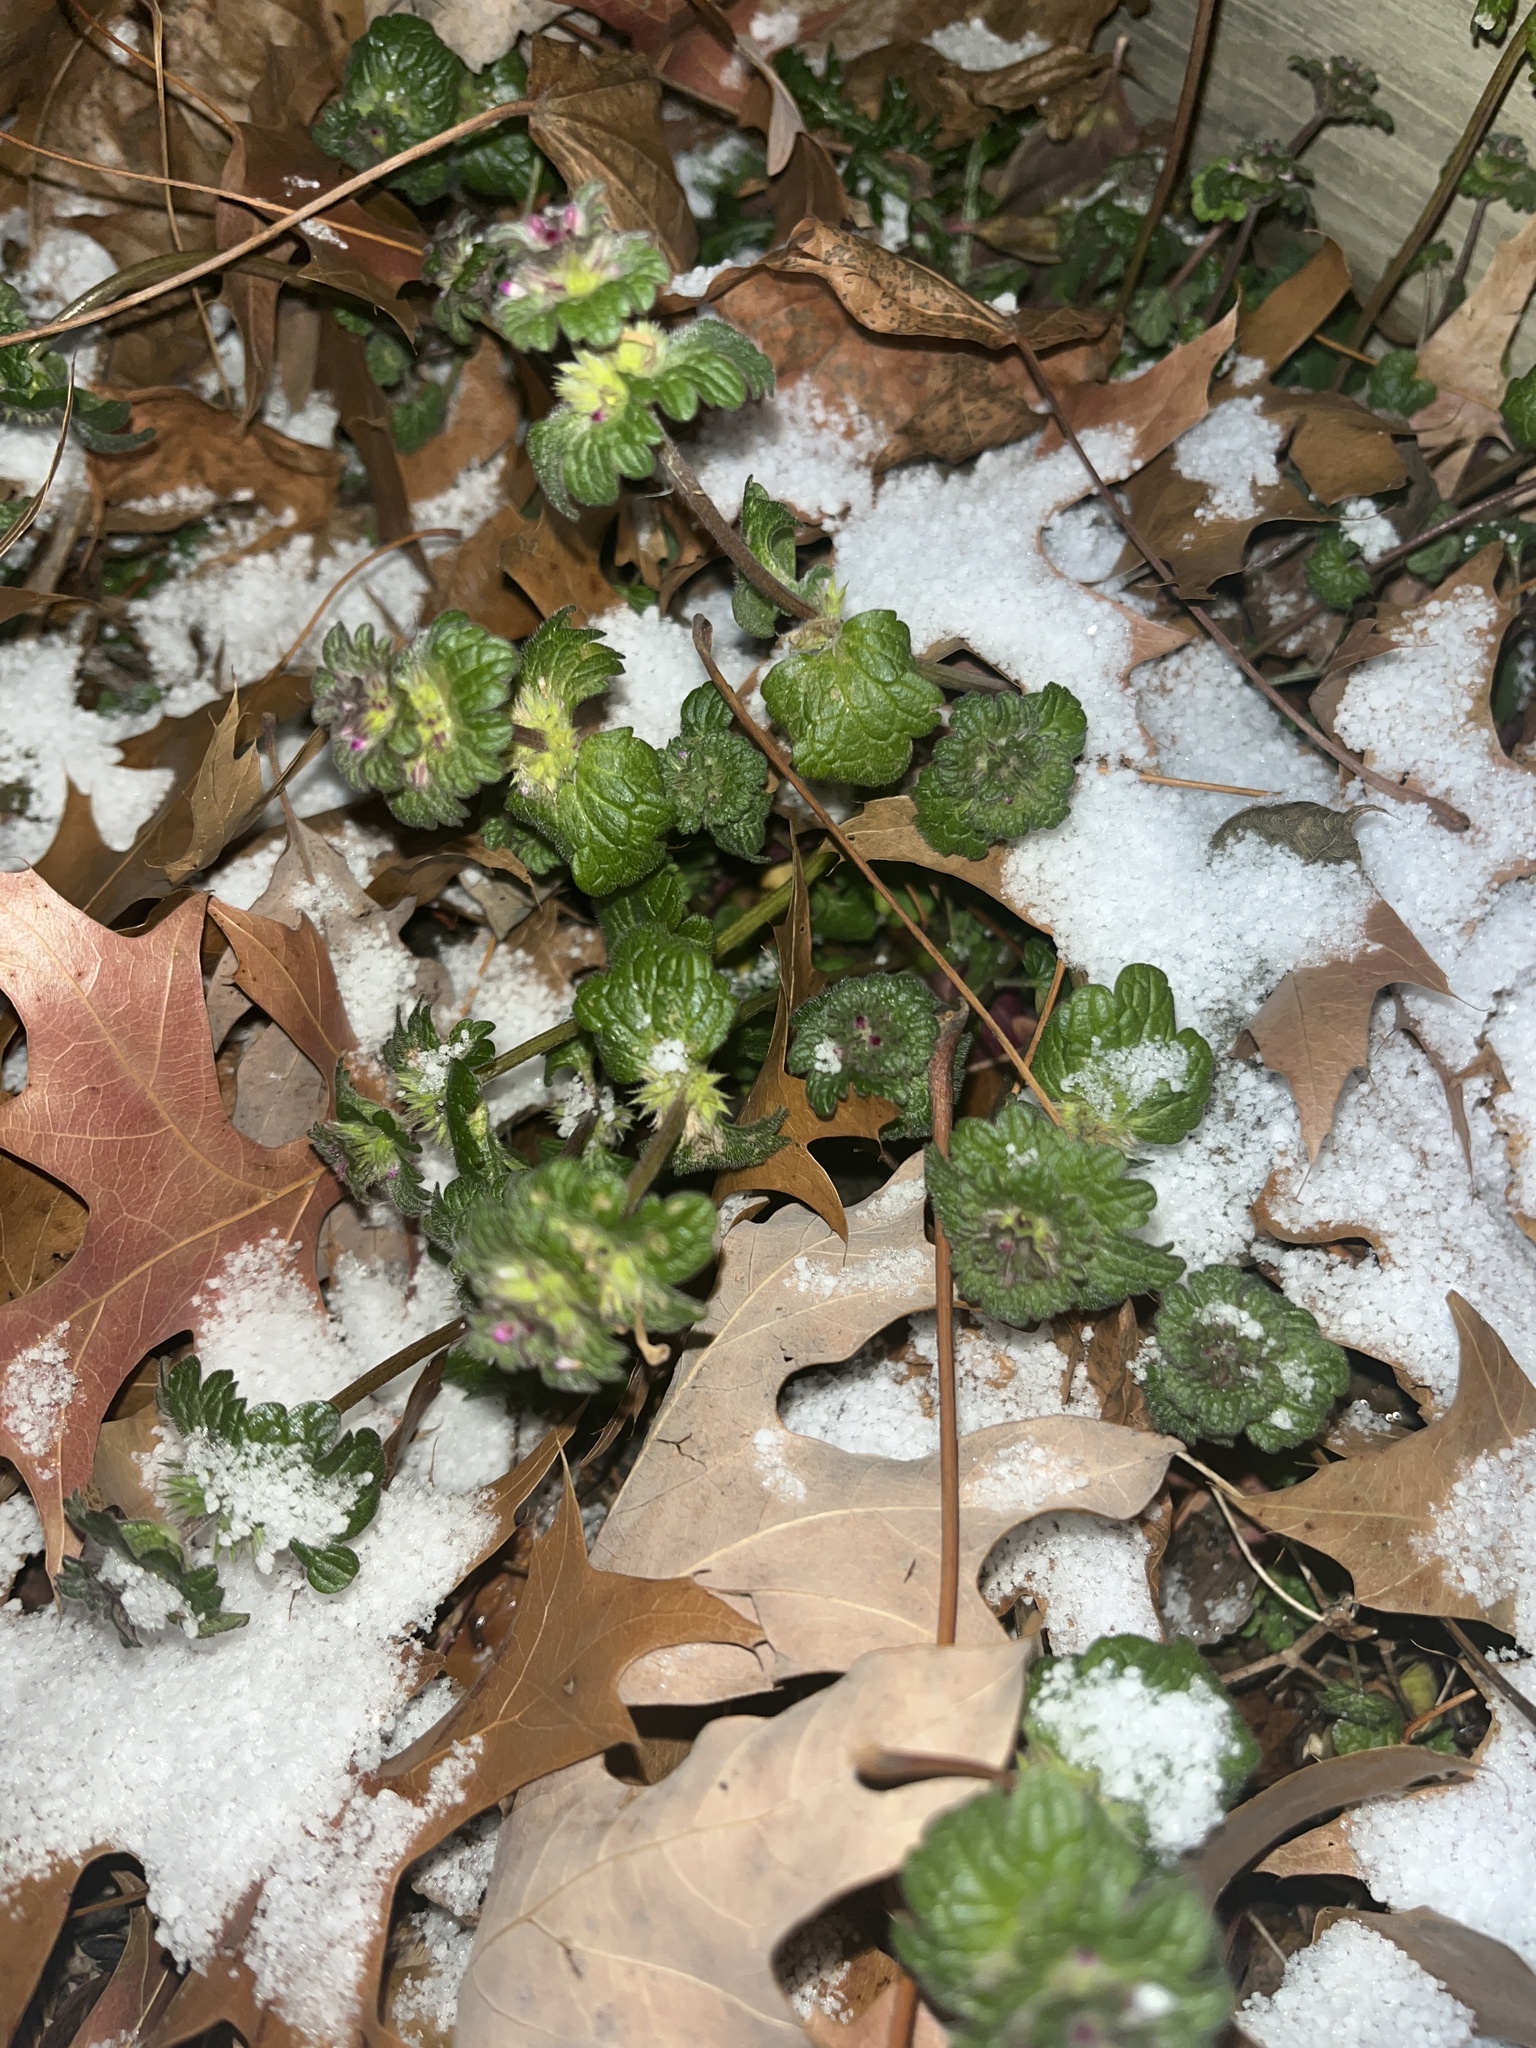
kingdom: Plantae
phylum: Tracheophyta
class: Magnoliopsida
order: Lamiales
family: Lamiaceae
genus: Lamium
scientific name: Lamium amplexicaule
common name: Henbit dead-nettle
